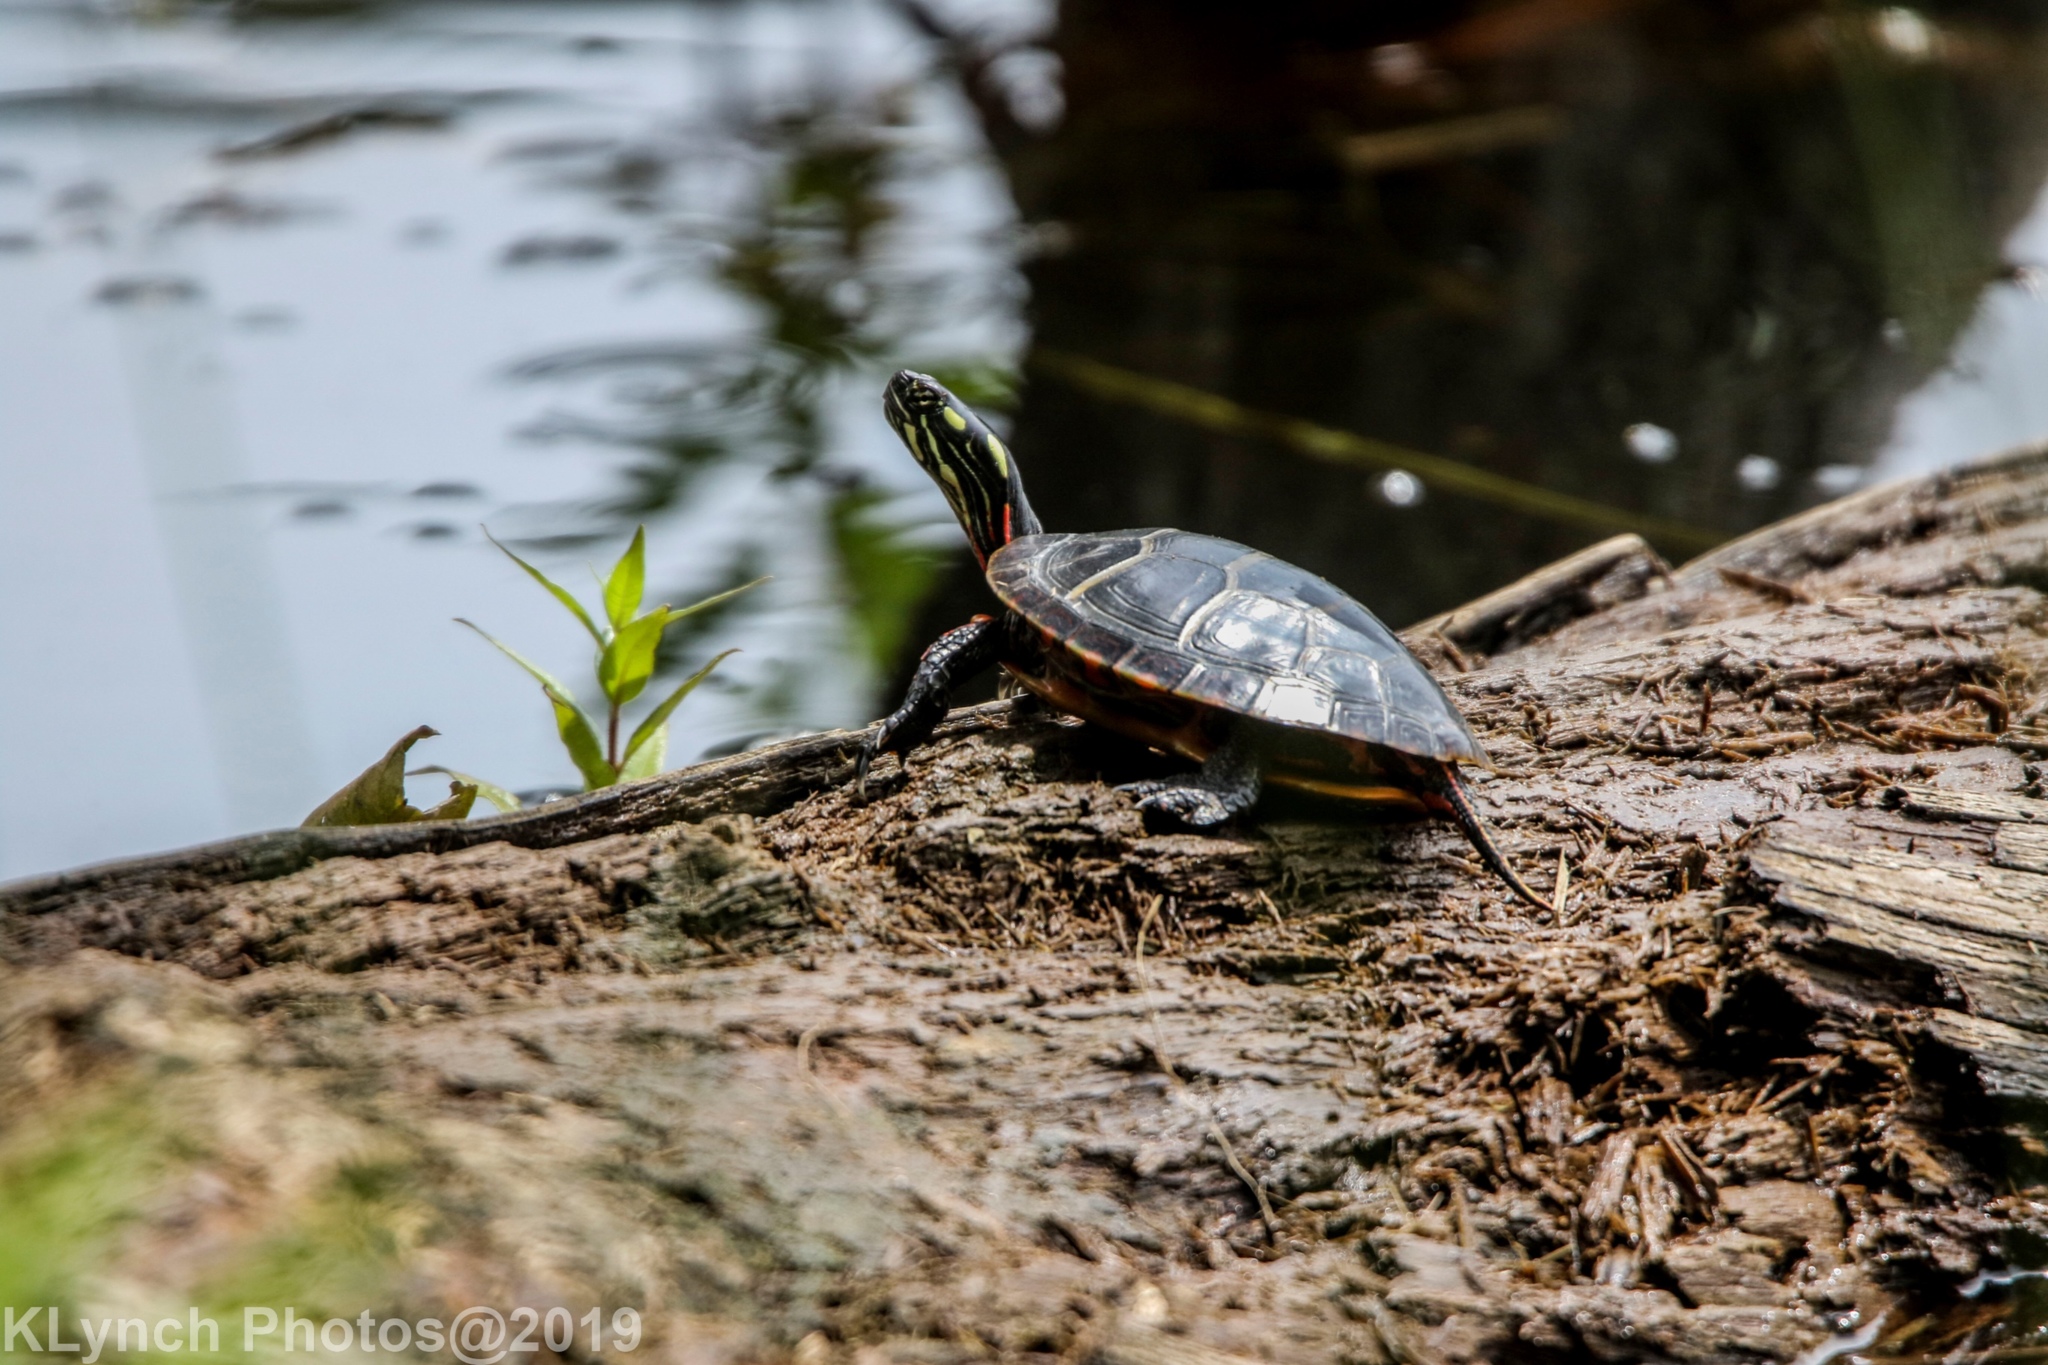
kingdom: Animalia
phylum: Chordata
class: Testudines
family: Emydidae
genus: Chrysemys
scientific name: Chrysemys picta
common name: Painted turtle
